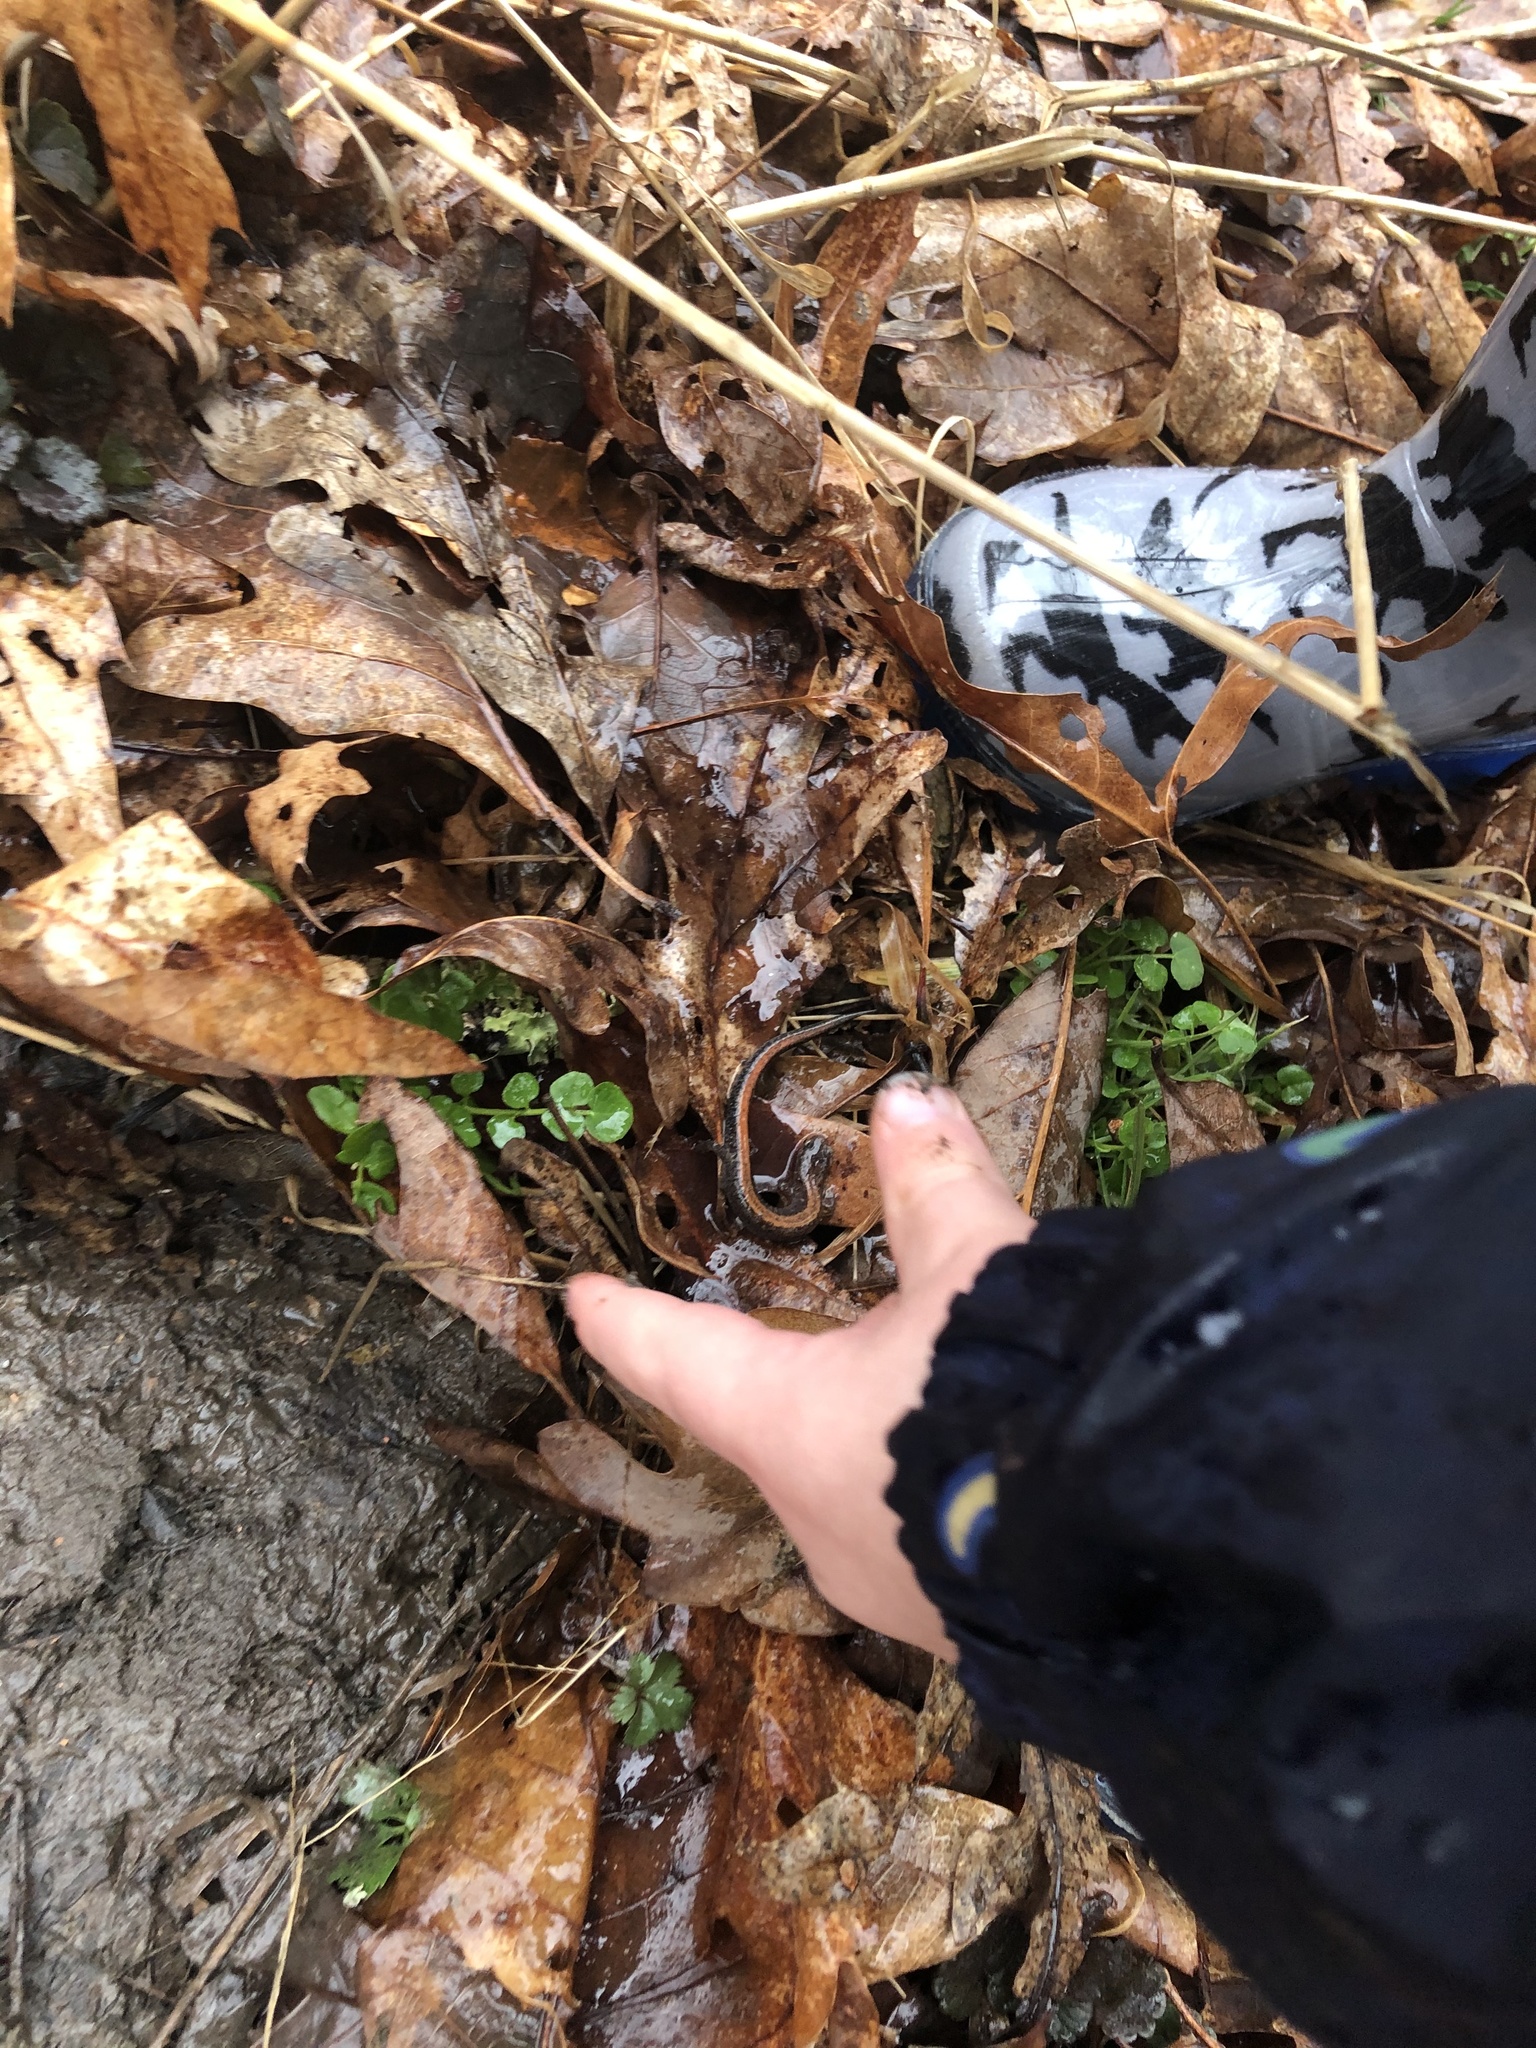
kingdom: Animalia
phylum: Chordata
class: Amphibia
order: Caudata
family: Plethodontidae
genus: Plethodon
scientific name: Plethodon cinereus
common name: Redback salamander
